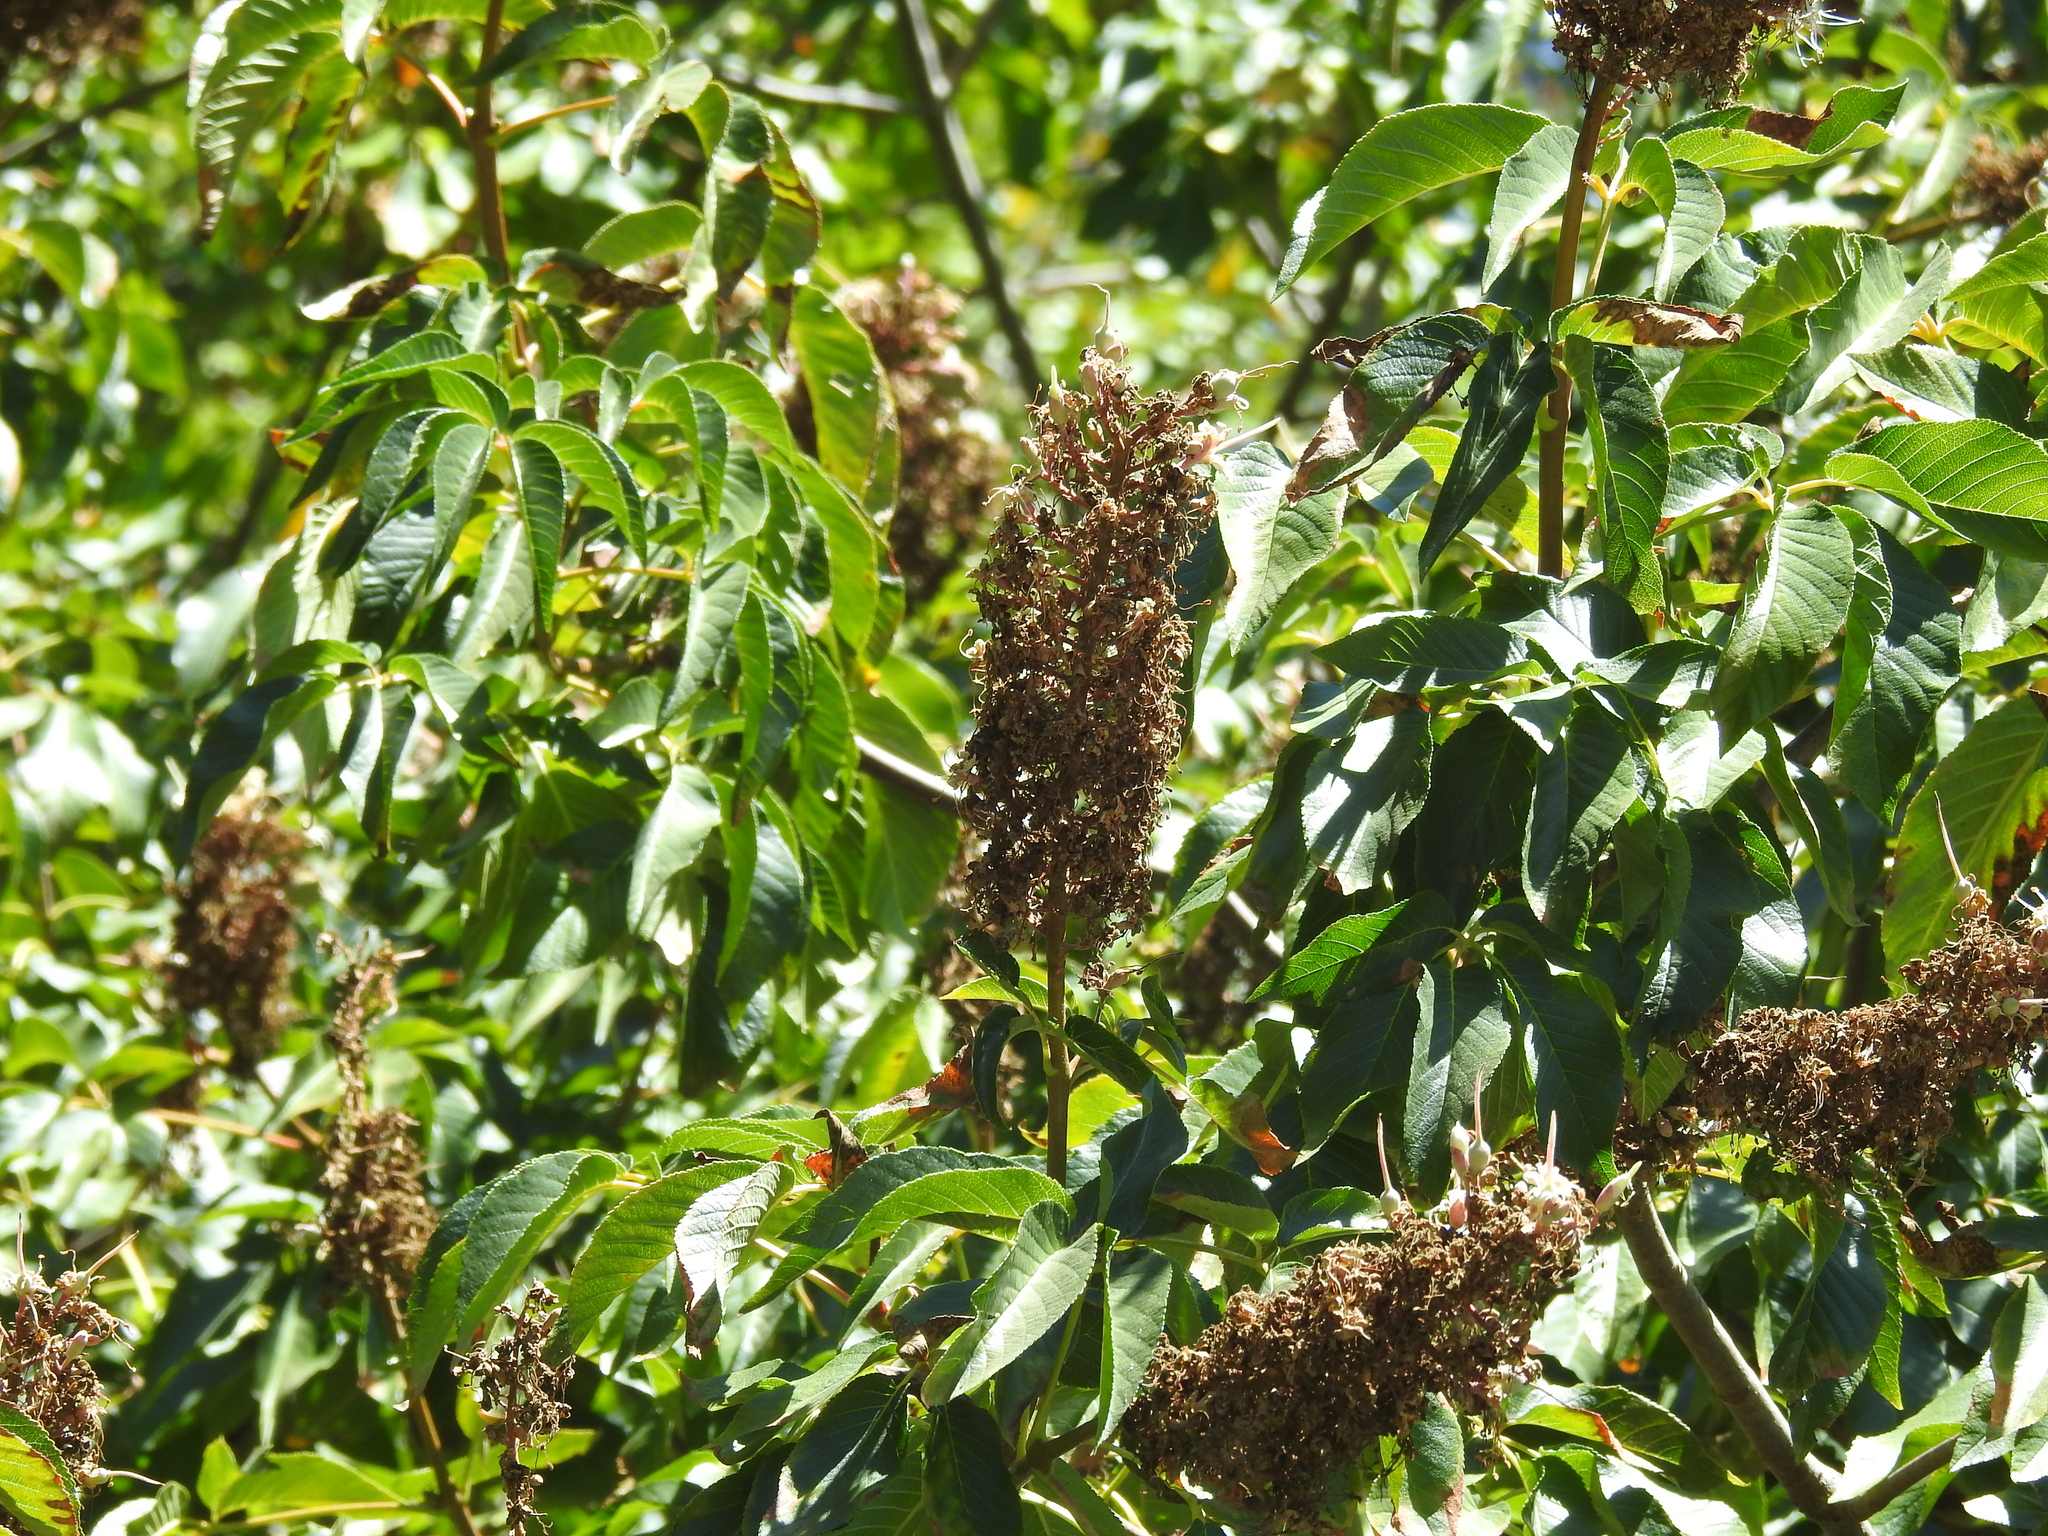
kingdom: Plantae
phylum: Tracheophyta
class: Magnoliopsida
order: Sapindales
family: Sapindaceae
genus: Aesculus
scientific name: Aesculus californica
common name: California buckeye
